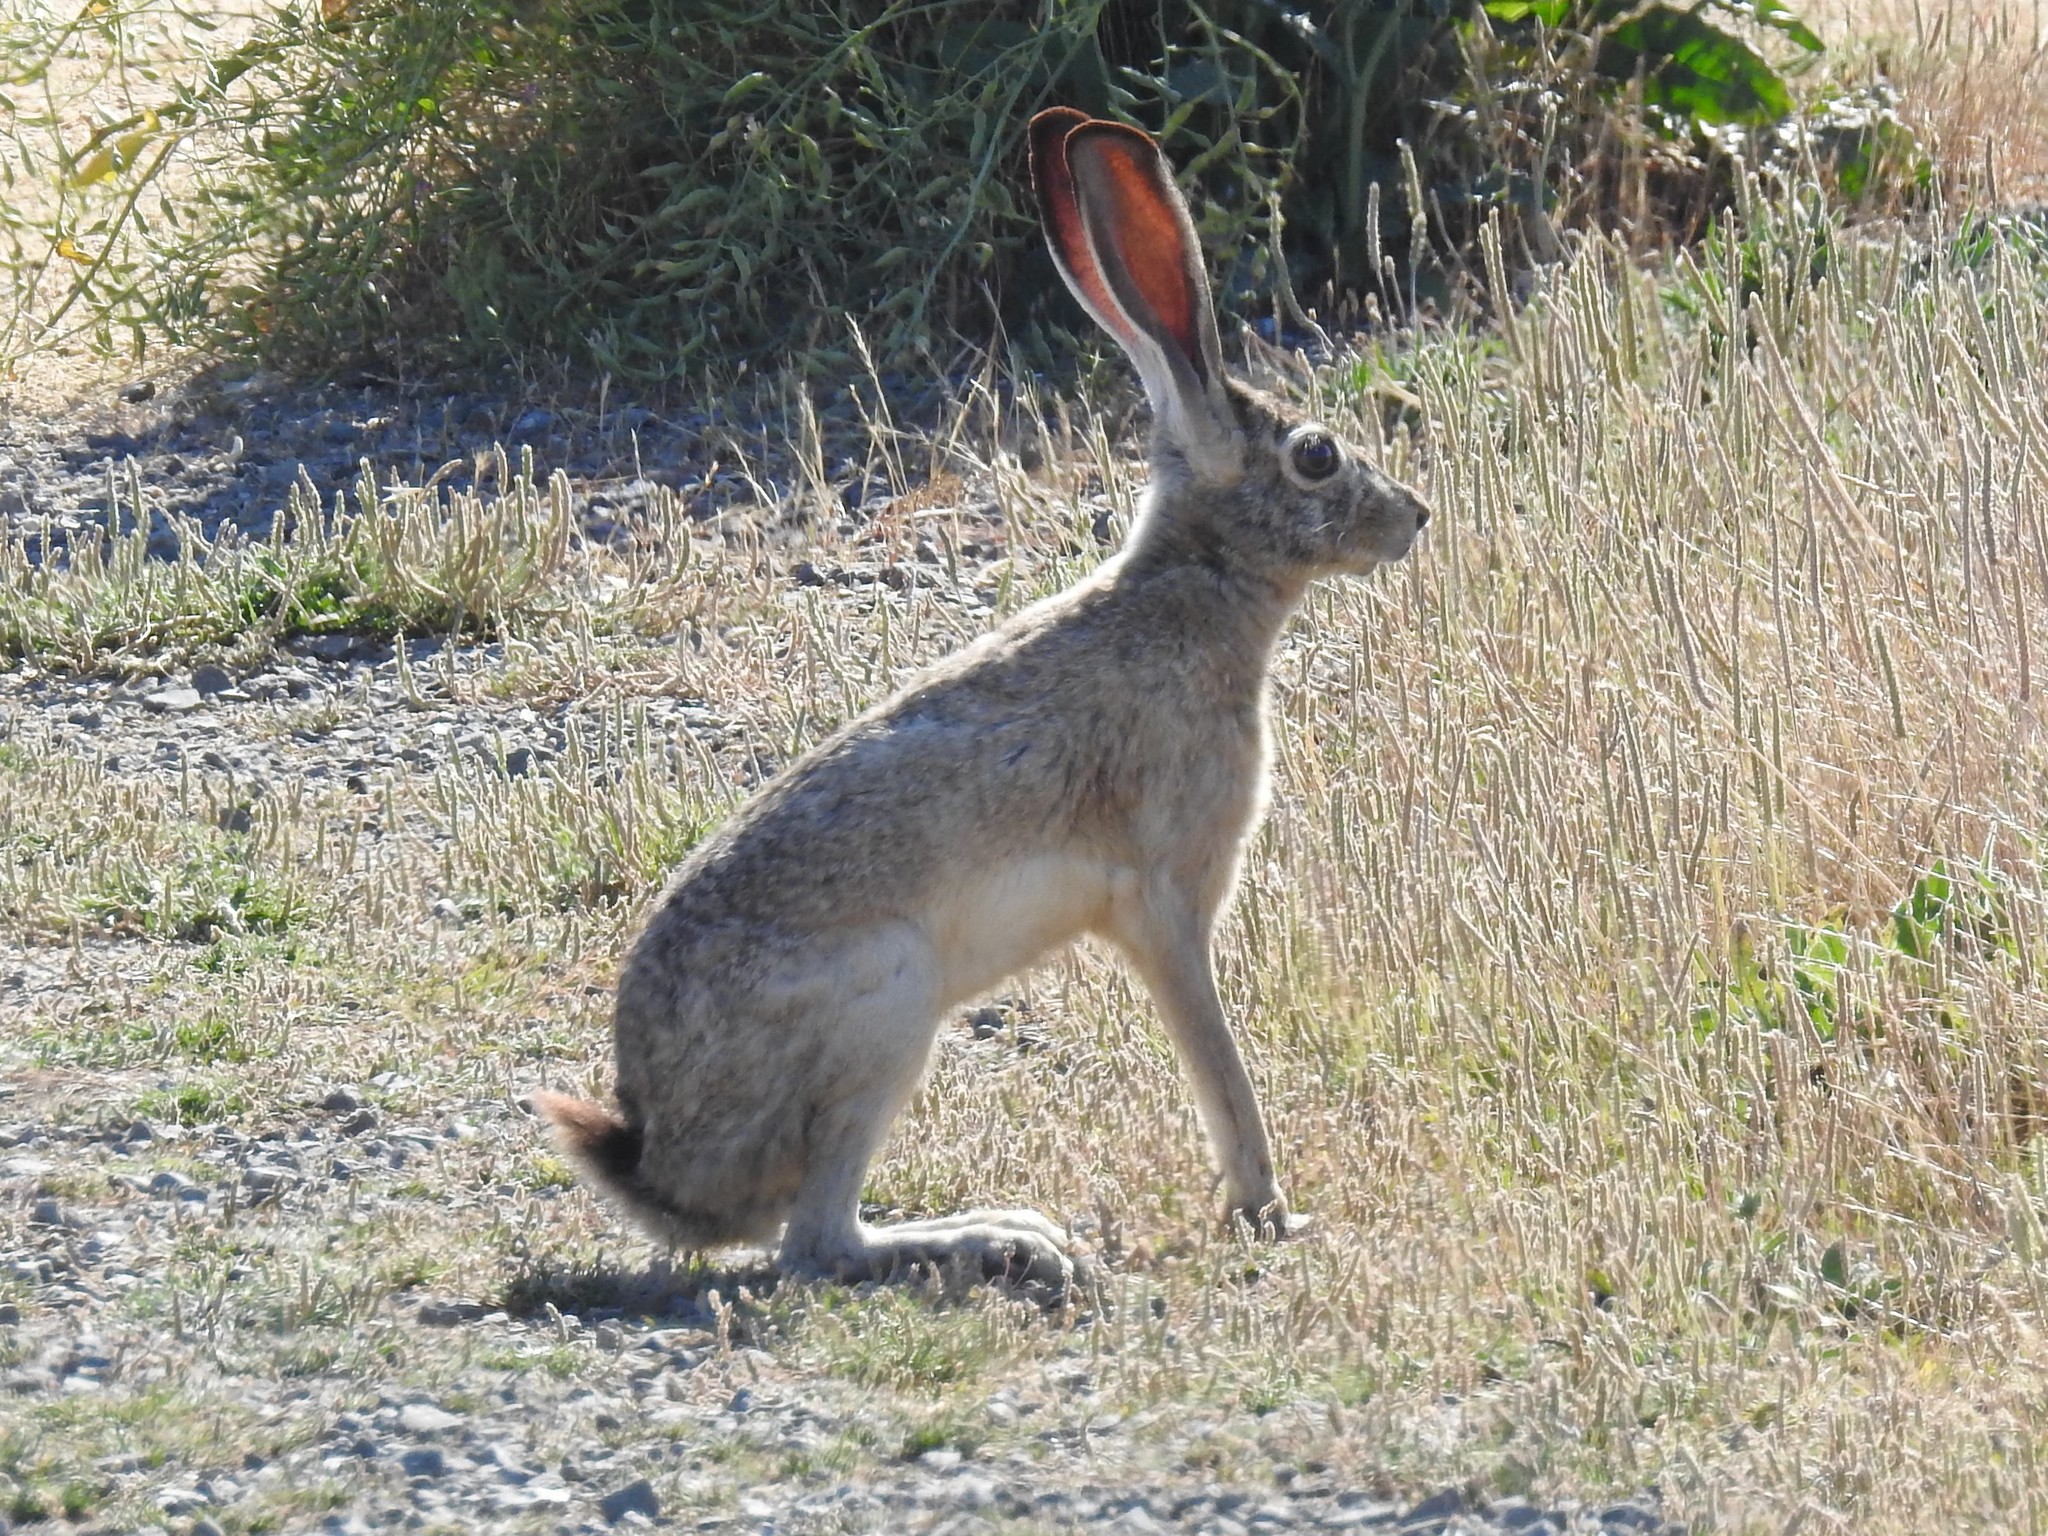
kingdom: Animalia
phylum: Chordata
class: Mammalia
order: Lagomorpha
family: Leporidae
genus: Lepus
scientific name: Lepus californicus
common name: Black-tailed jackrabbit
